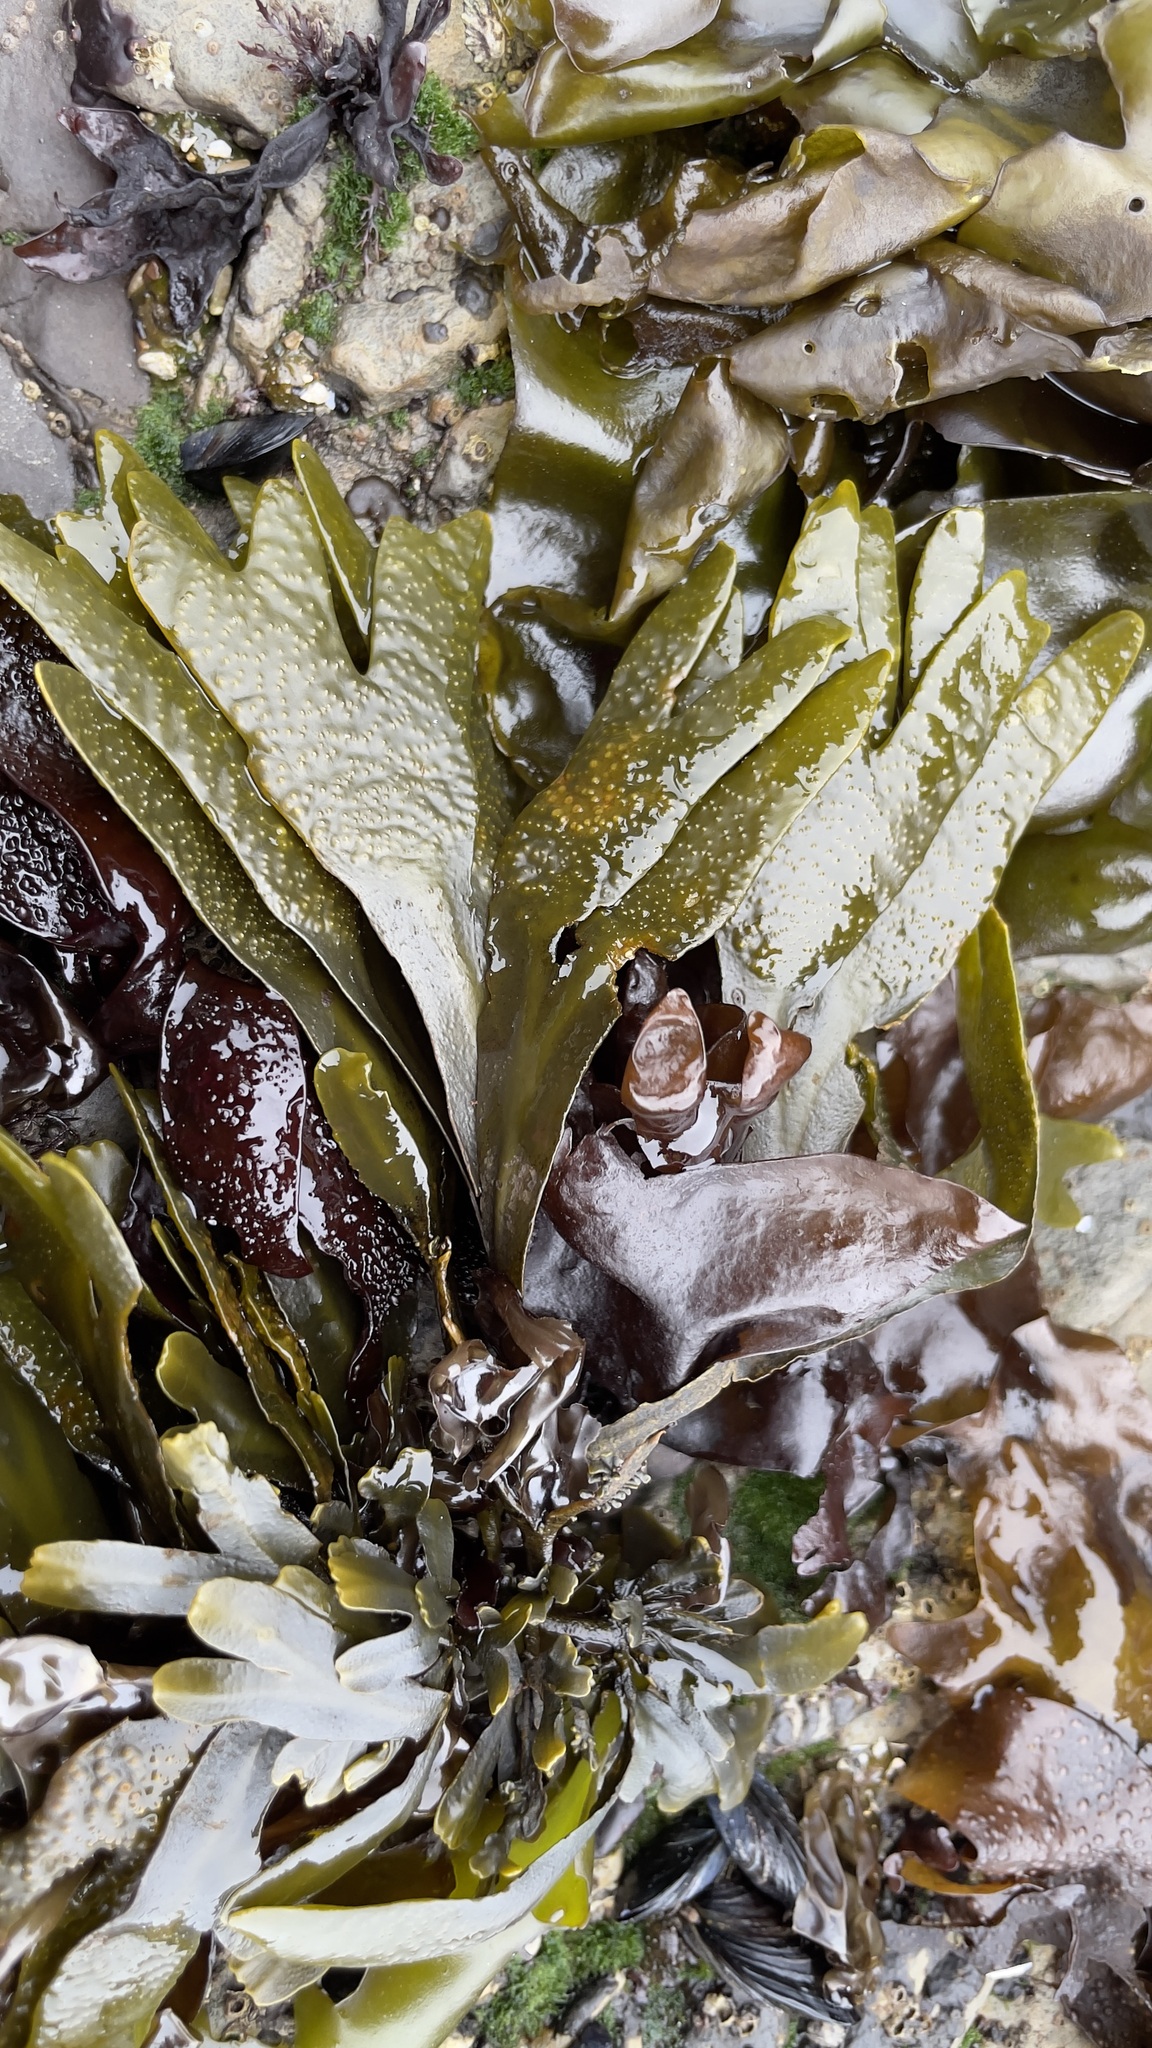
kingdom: Chromista
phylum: Ochrophyta
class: Phaeophyceae
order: Fucales
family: Fucaceae
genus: Fucus
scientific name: Fucus distichus
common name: Rockweed
